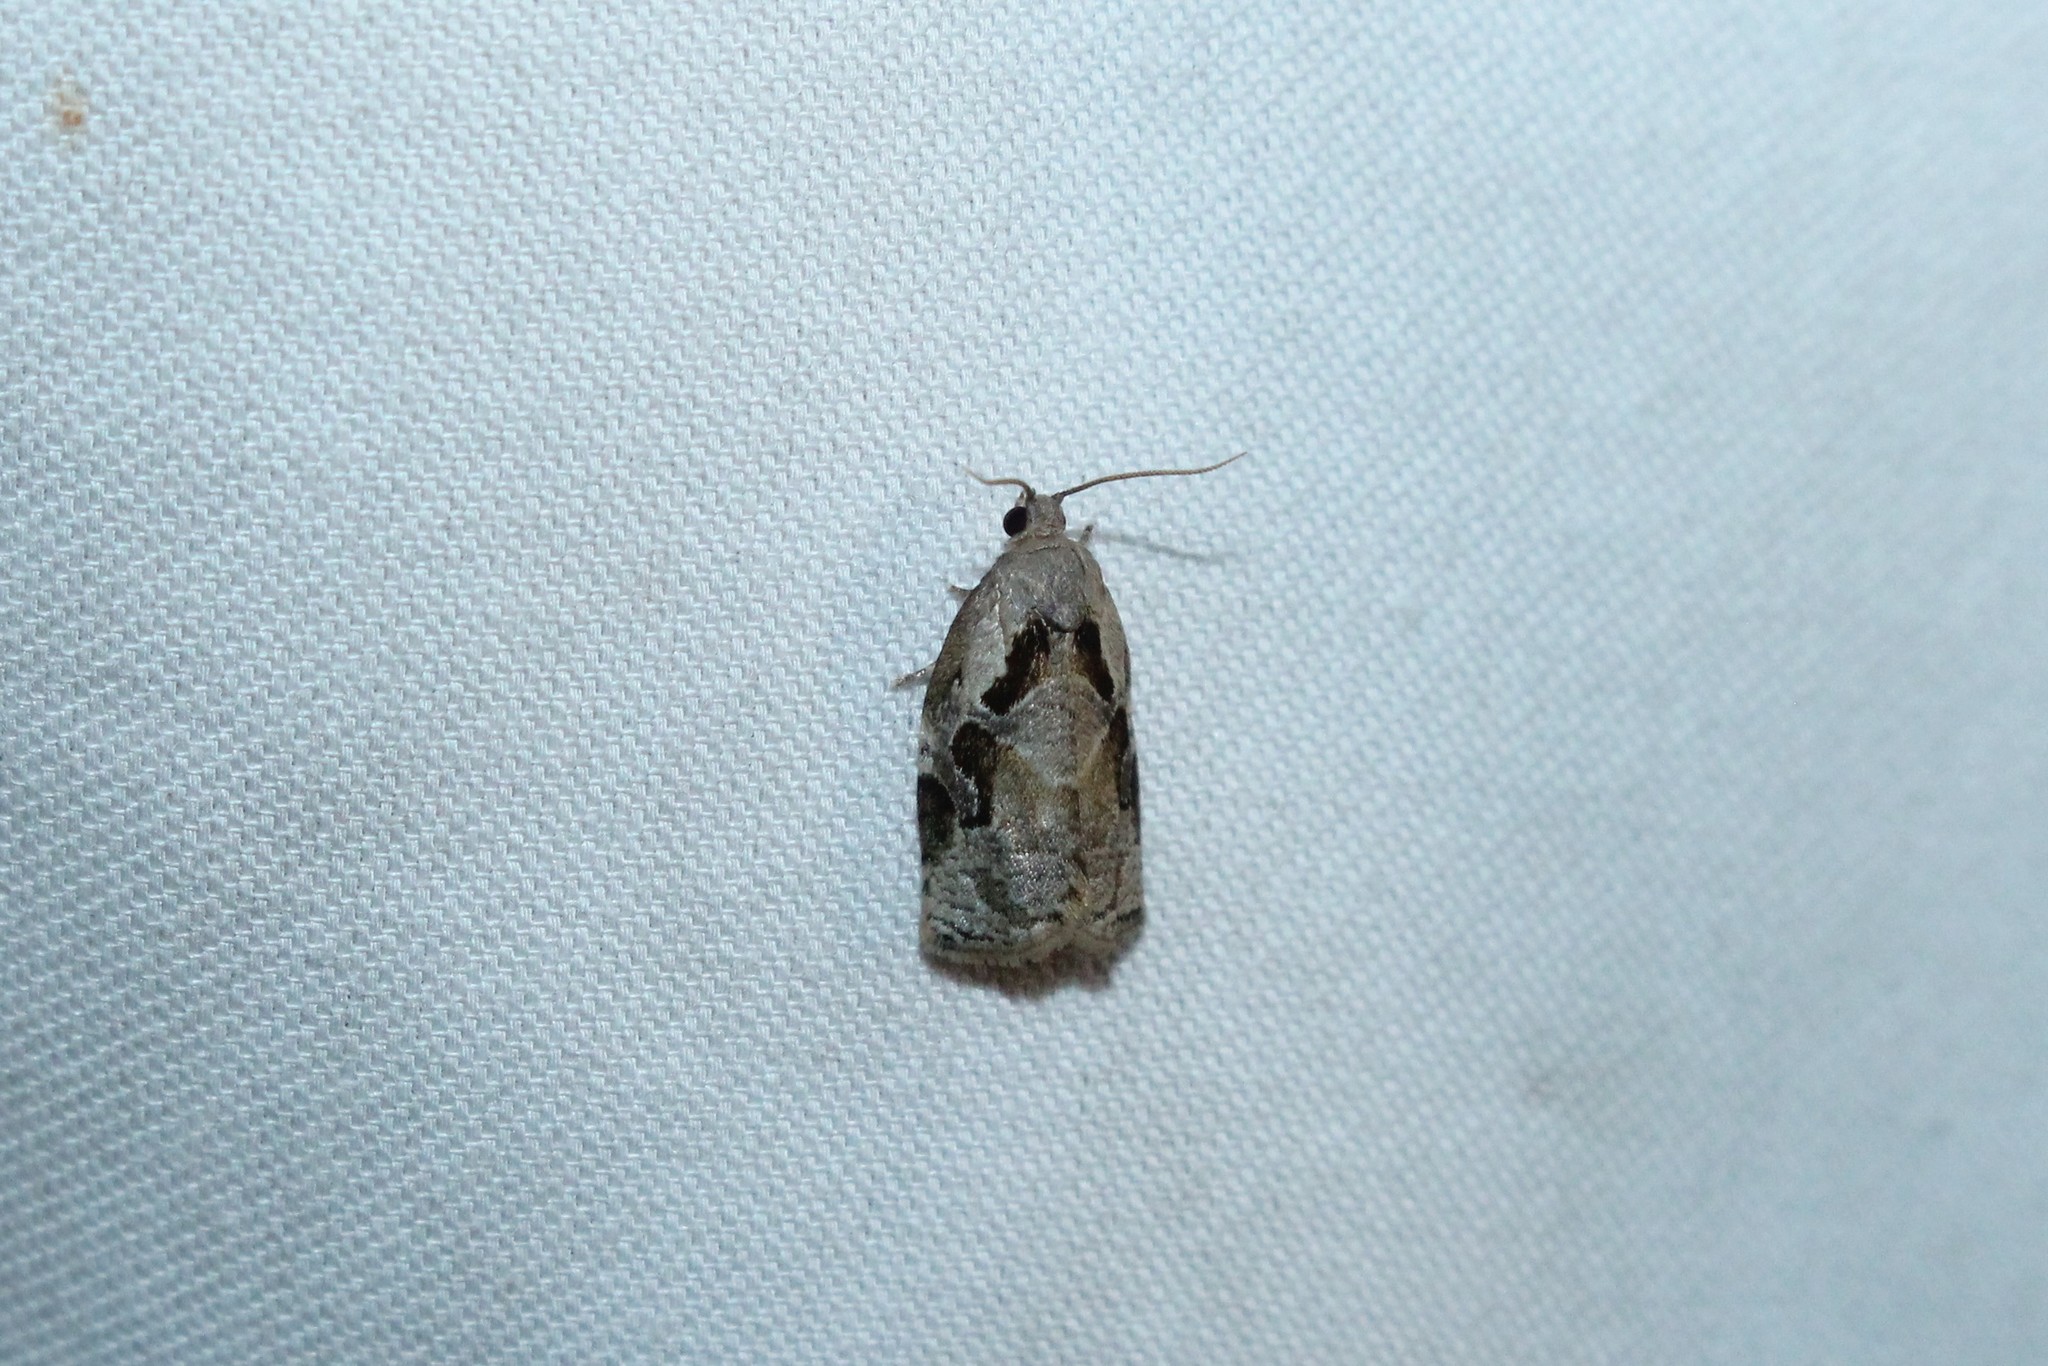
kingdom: Animalia
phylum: Arthropoda
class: Insecta
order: Lepidoptera
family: Tortricidae
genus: Archips
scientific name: Archips grisea
